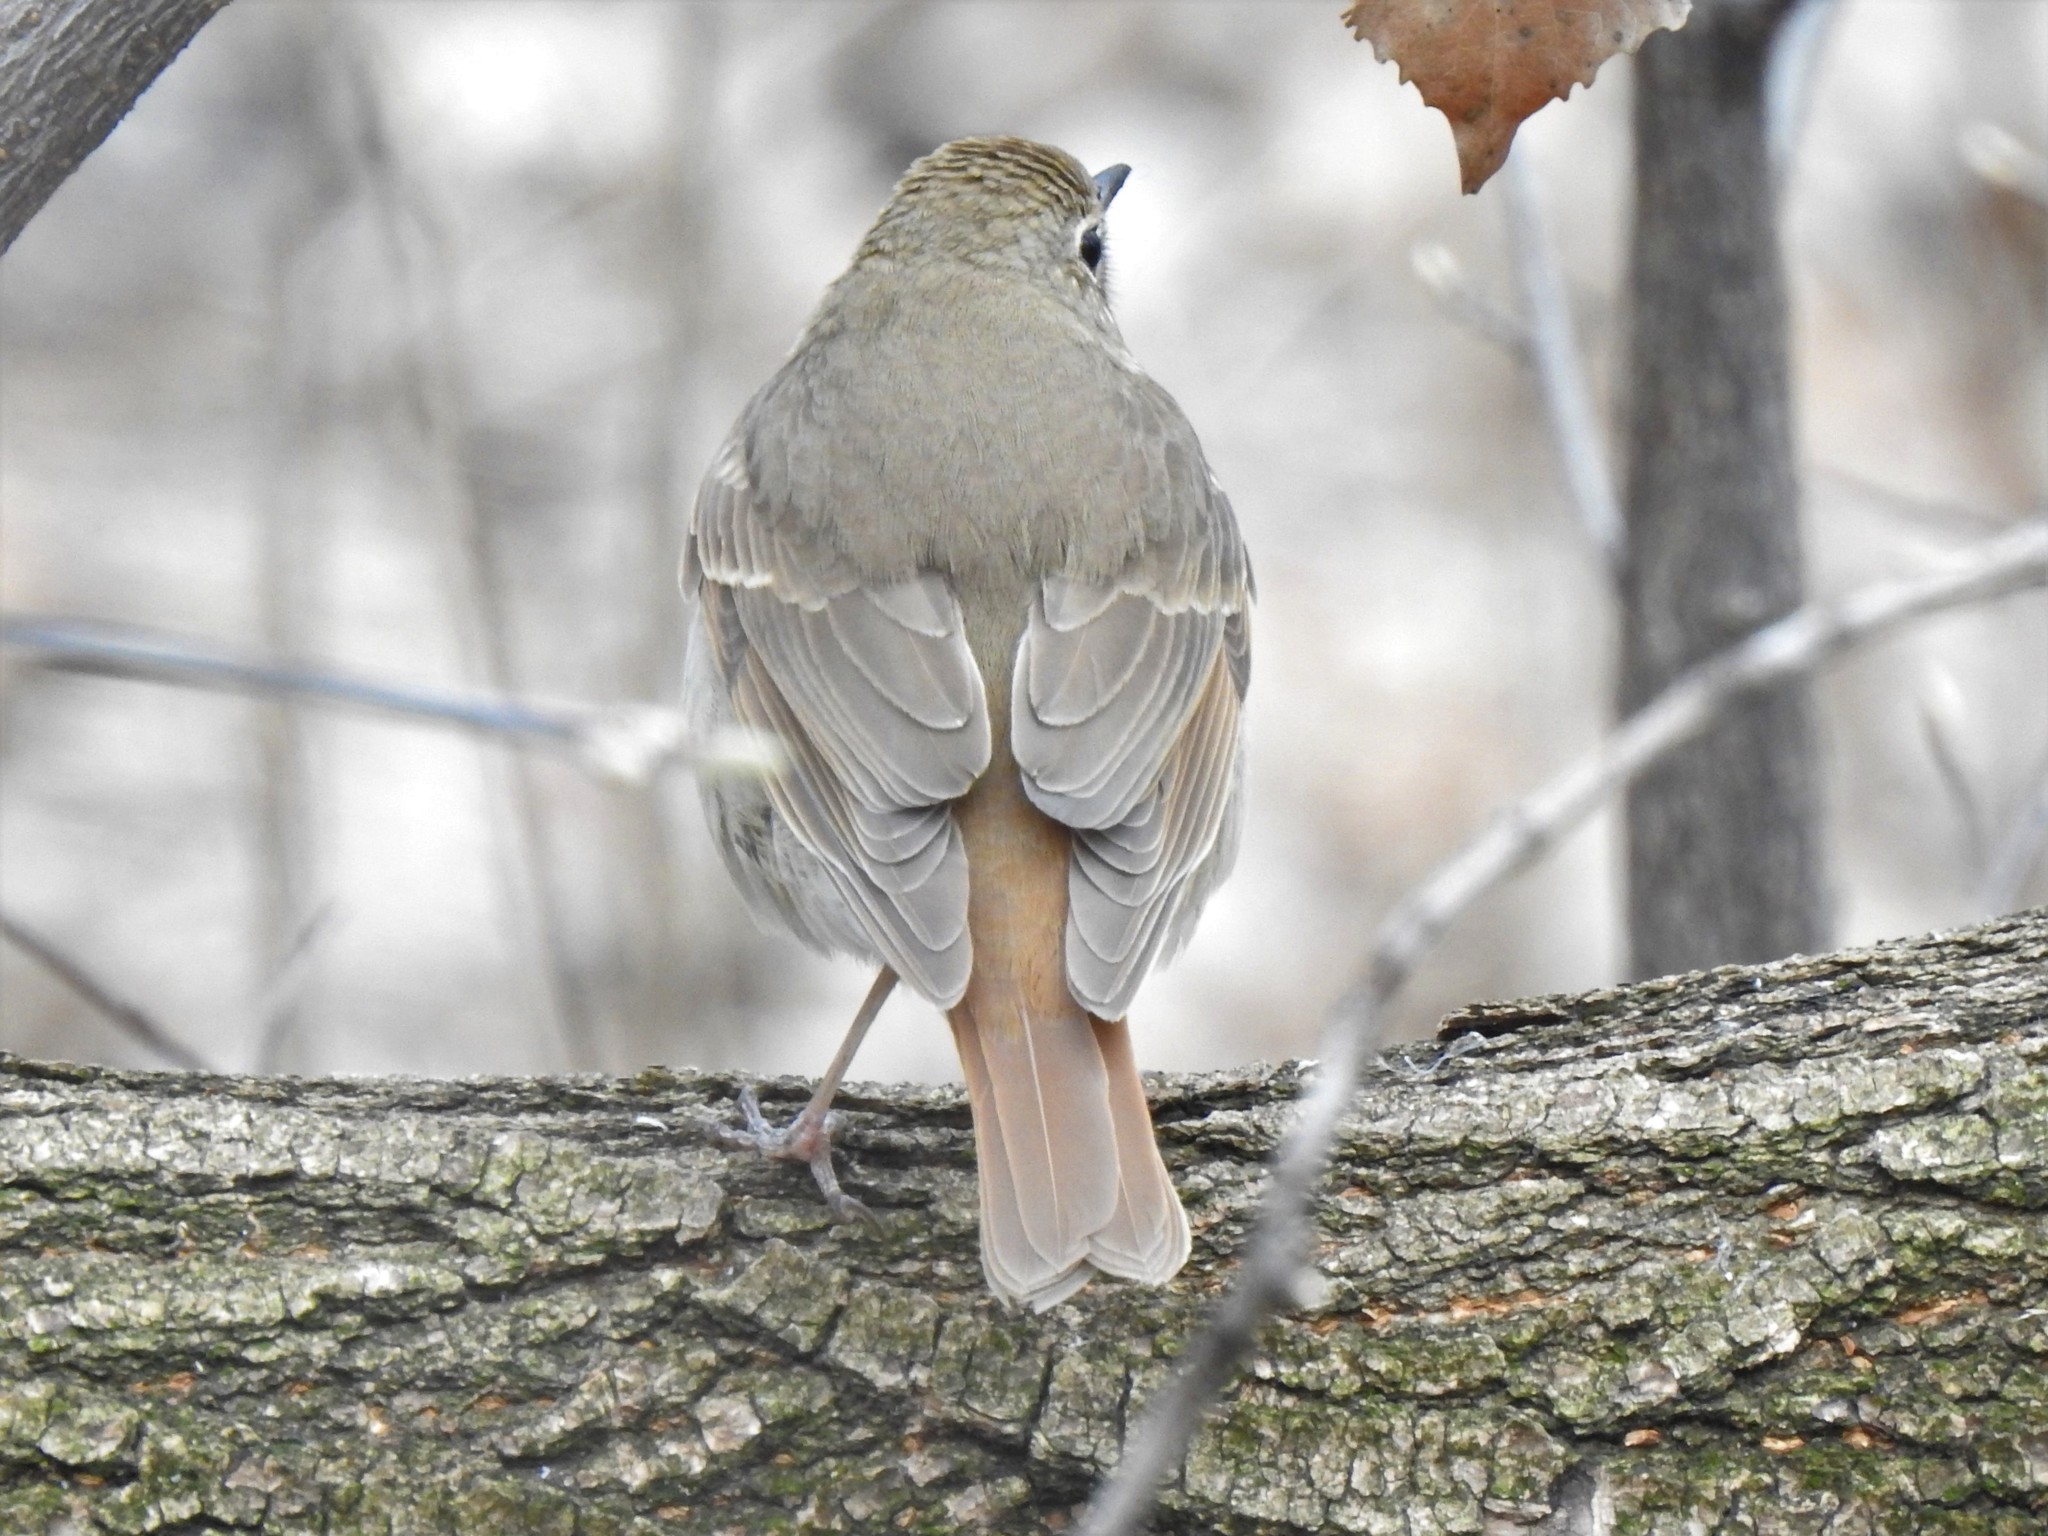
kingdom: Animalia
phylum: Chordata
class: Aves
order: Passeriformes
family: Turdidae
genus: Catharus
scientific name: Catharus guttatus
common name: Hermit thrush
